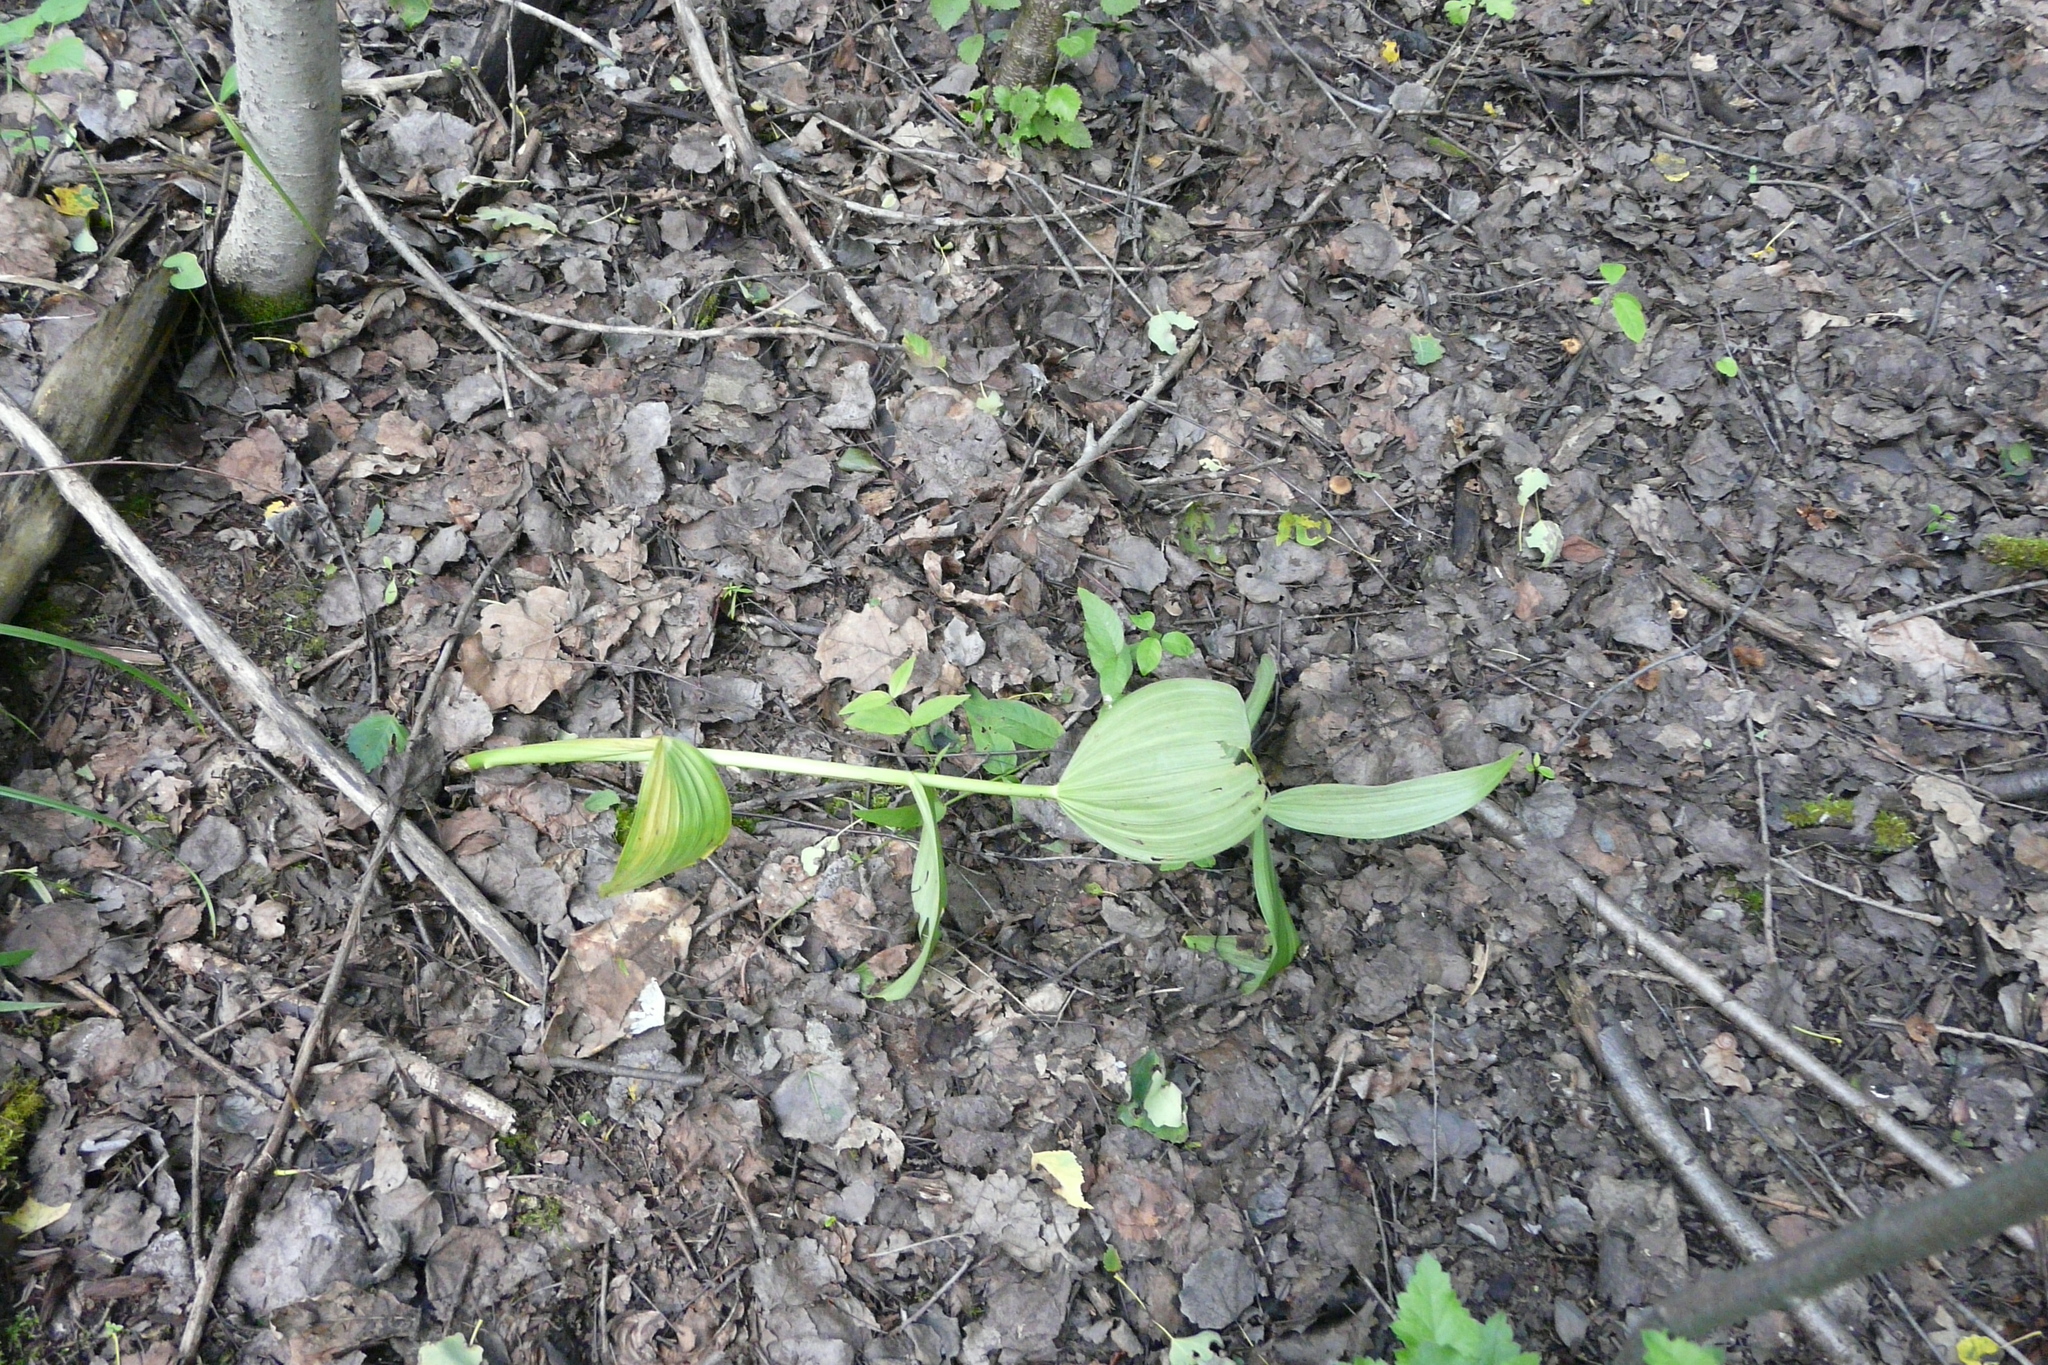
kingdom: Plantae
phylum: Tracheophyta
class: Liliopsida
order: Liliales
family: Melanthiaceae
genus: Veratrum
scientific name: Veratrum lobelianum
